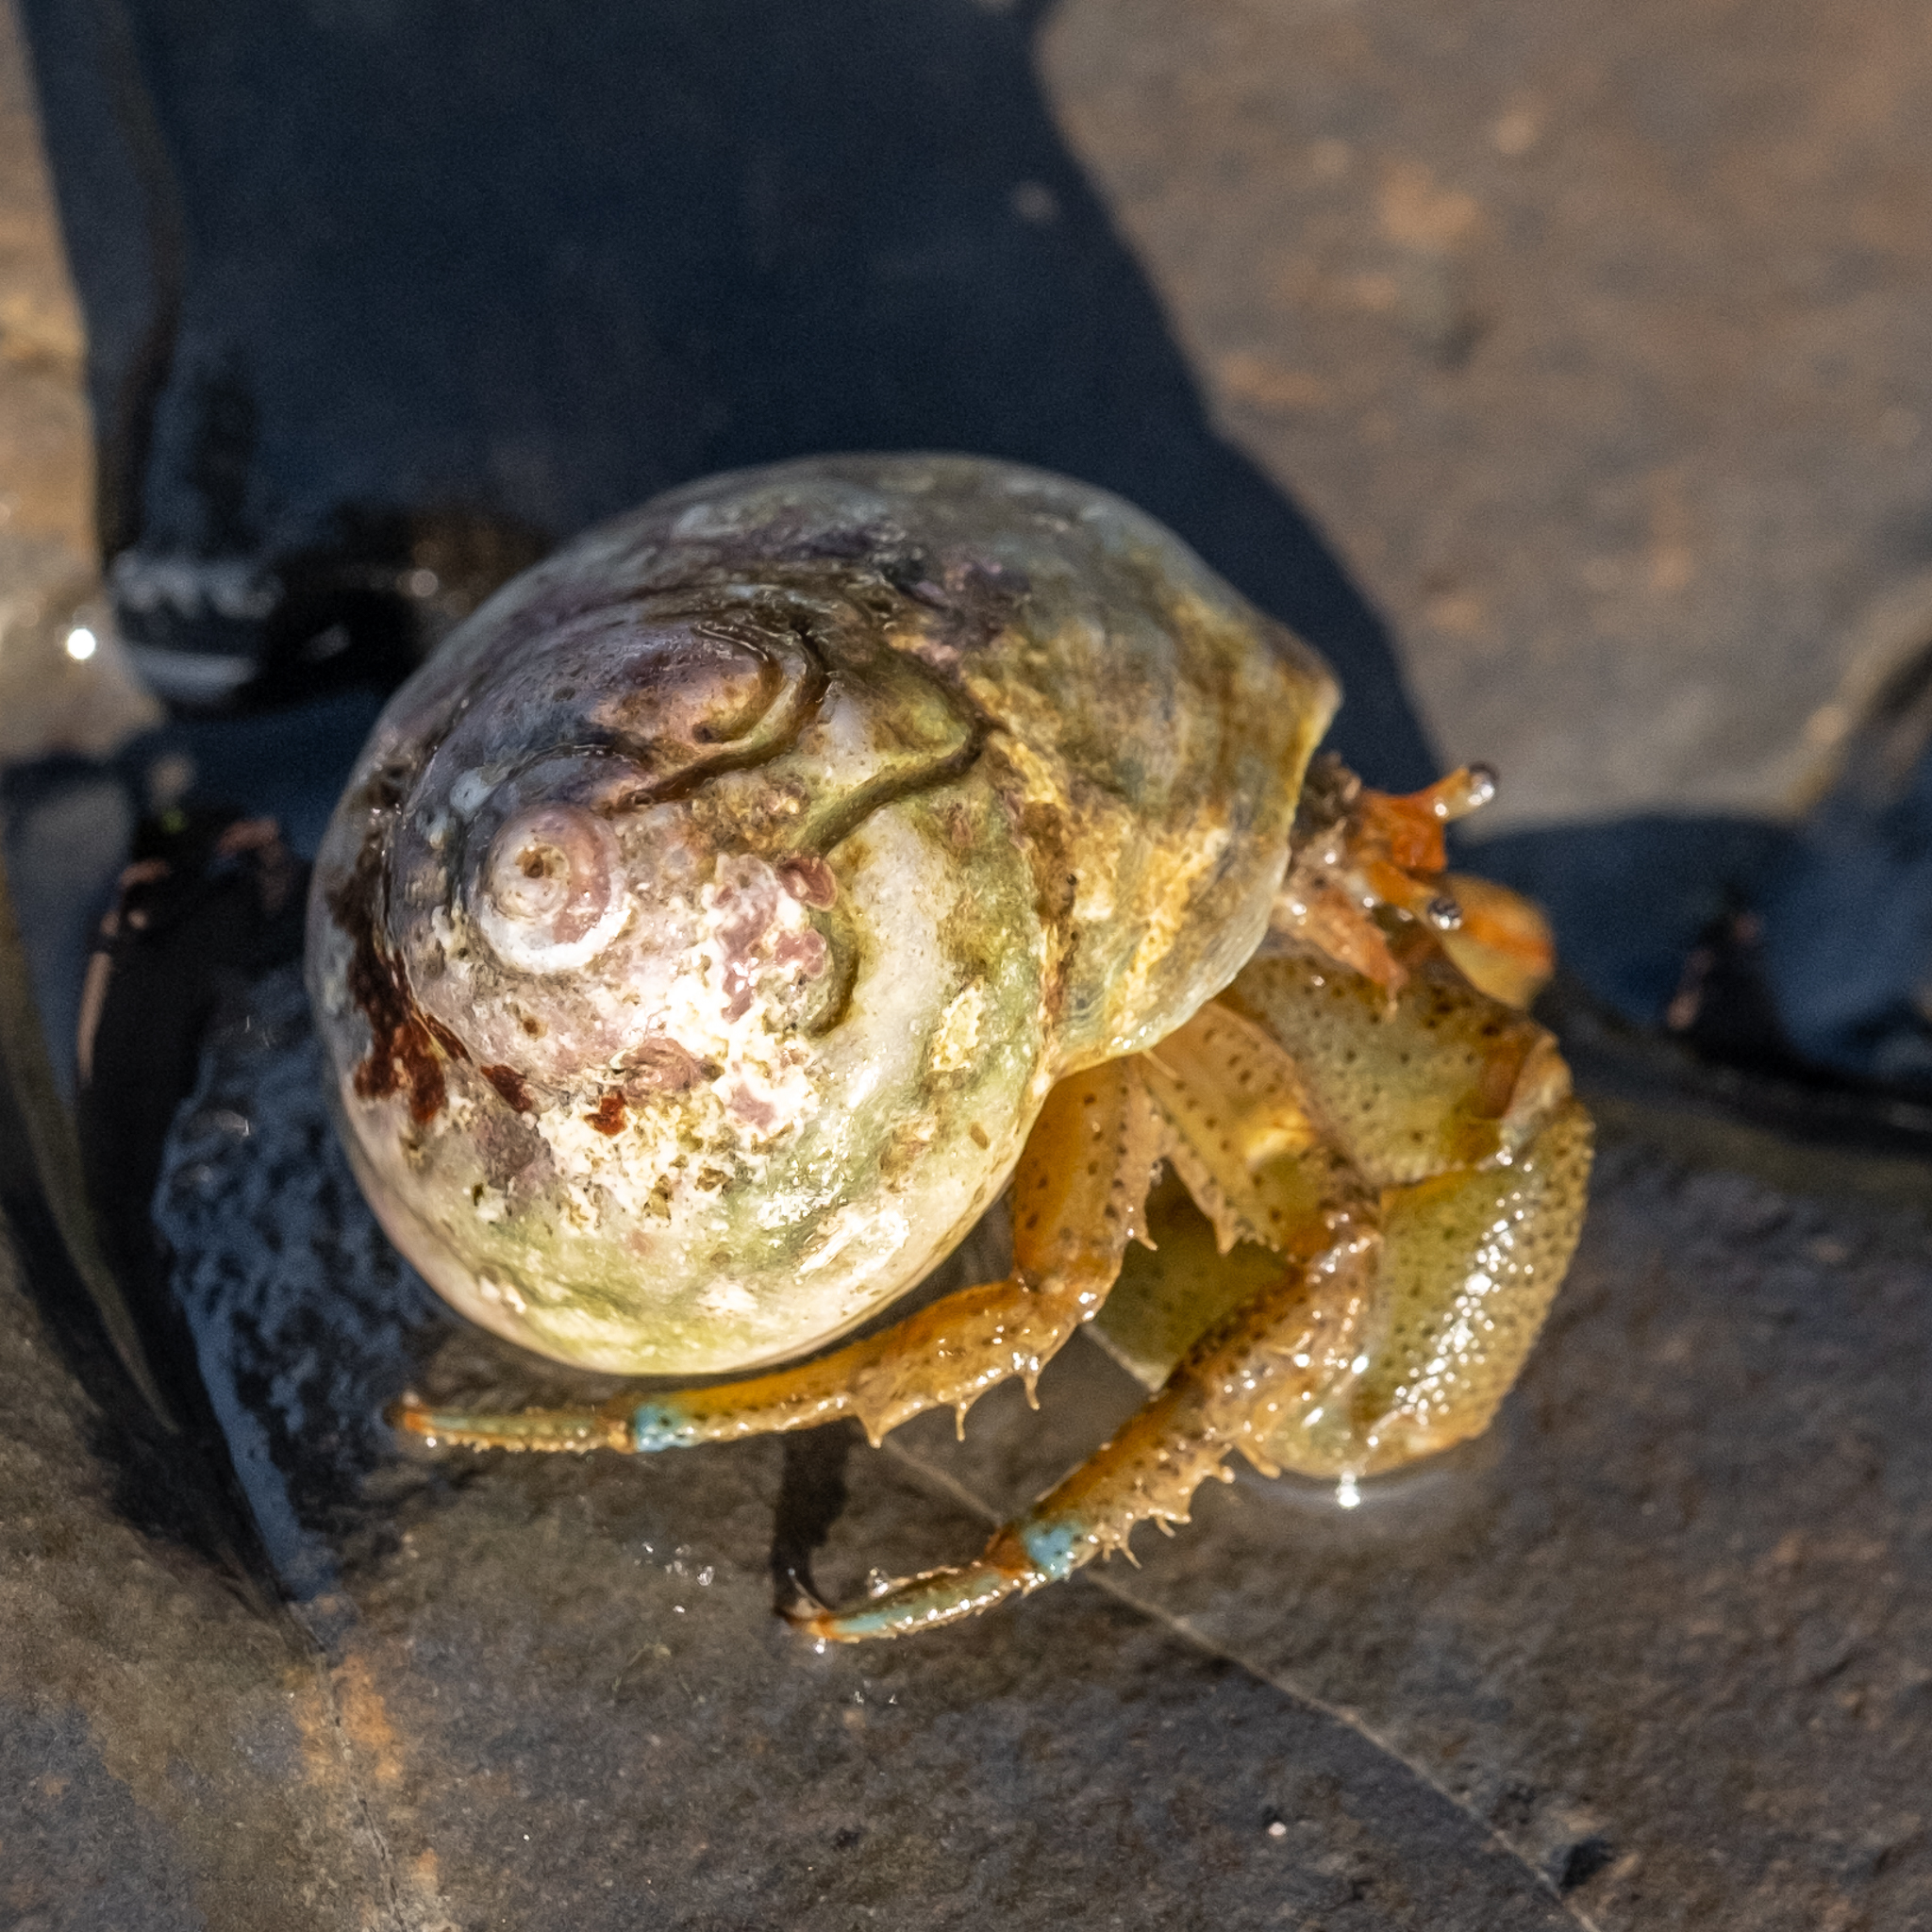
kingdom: Animalia
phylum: Arthropoda
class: Malacostraca
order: Decapoda
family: Paguridae
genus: Pagurus
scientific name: Pagurus samuelis
